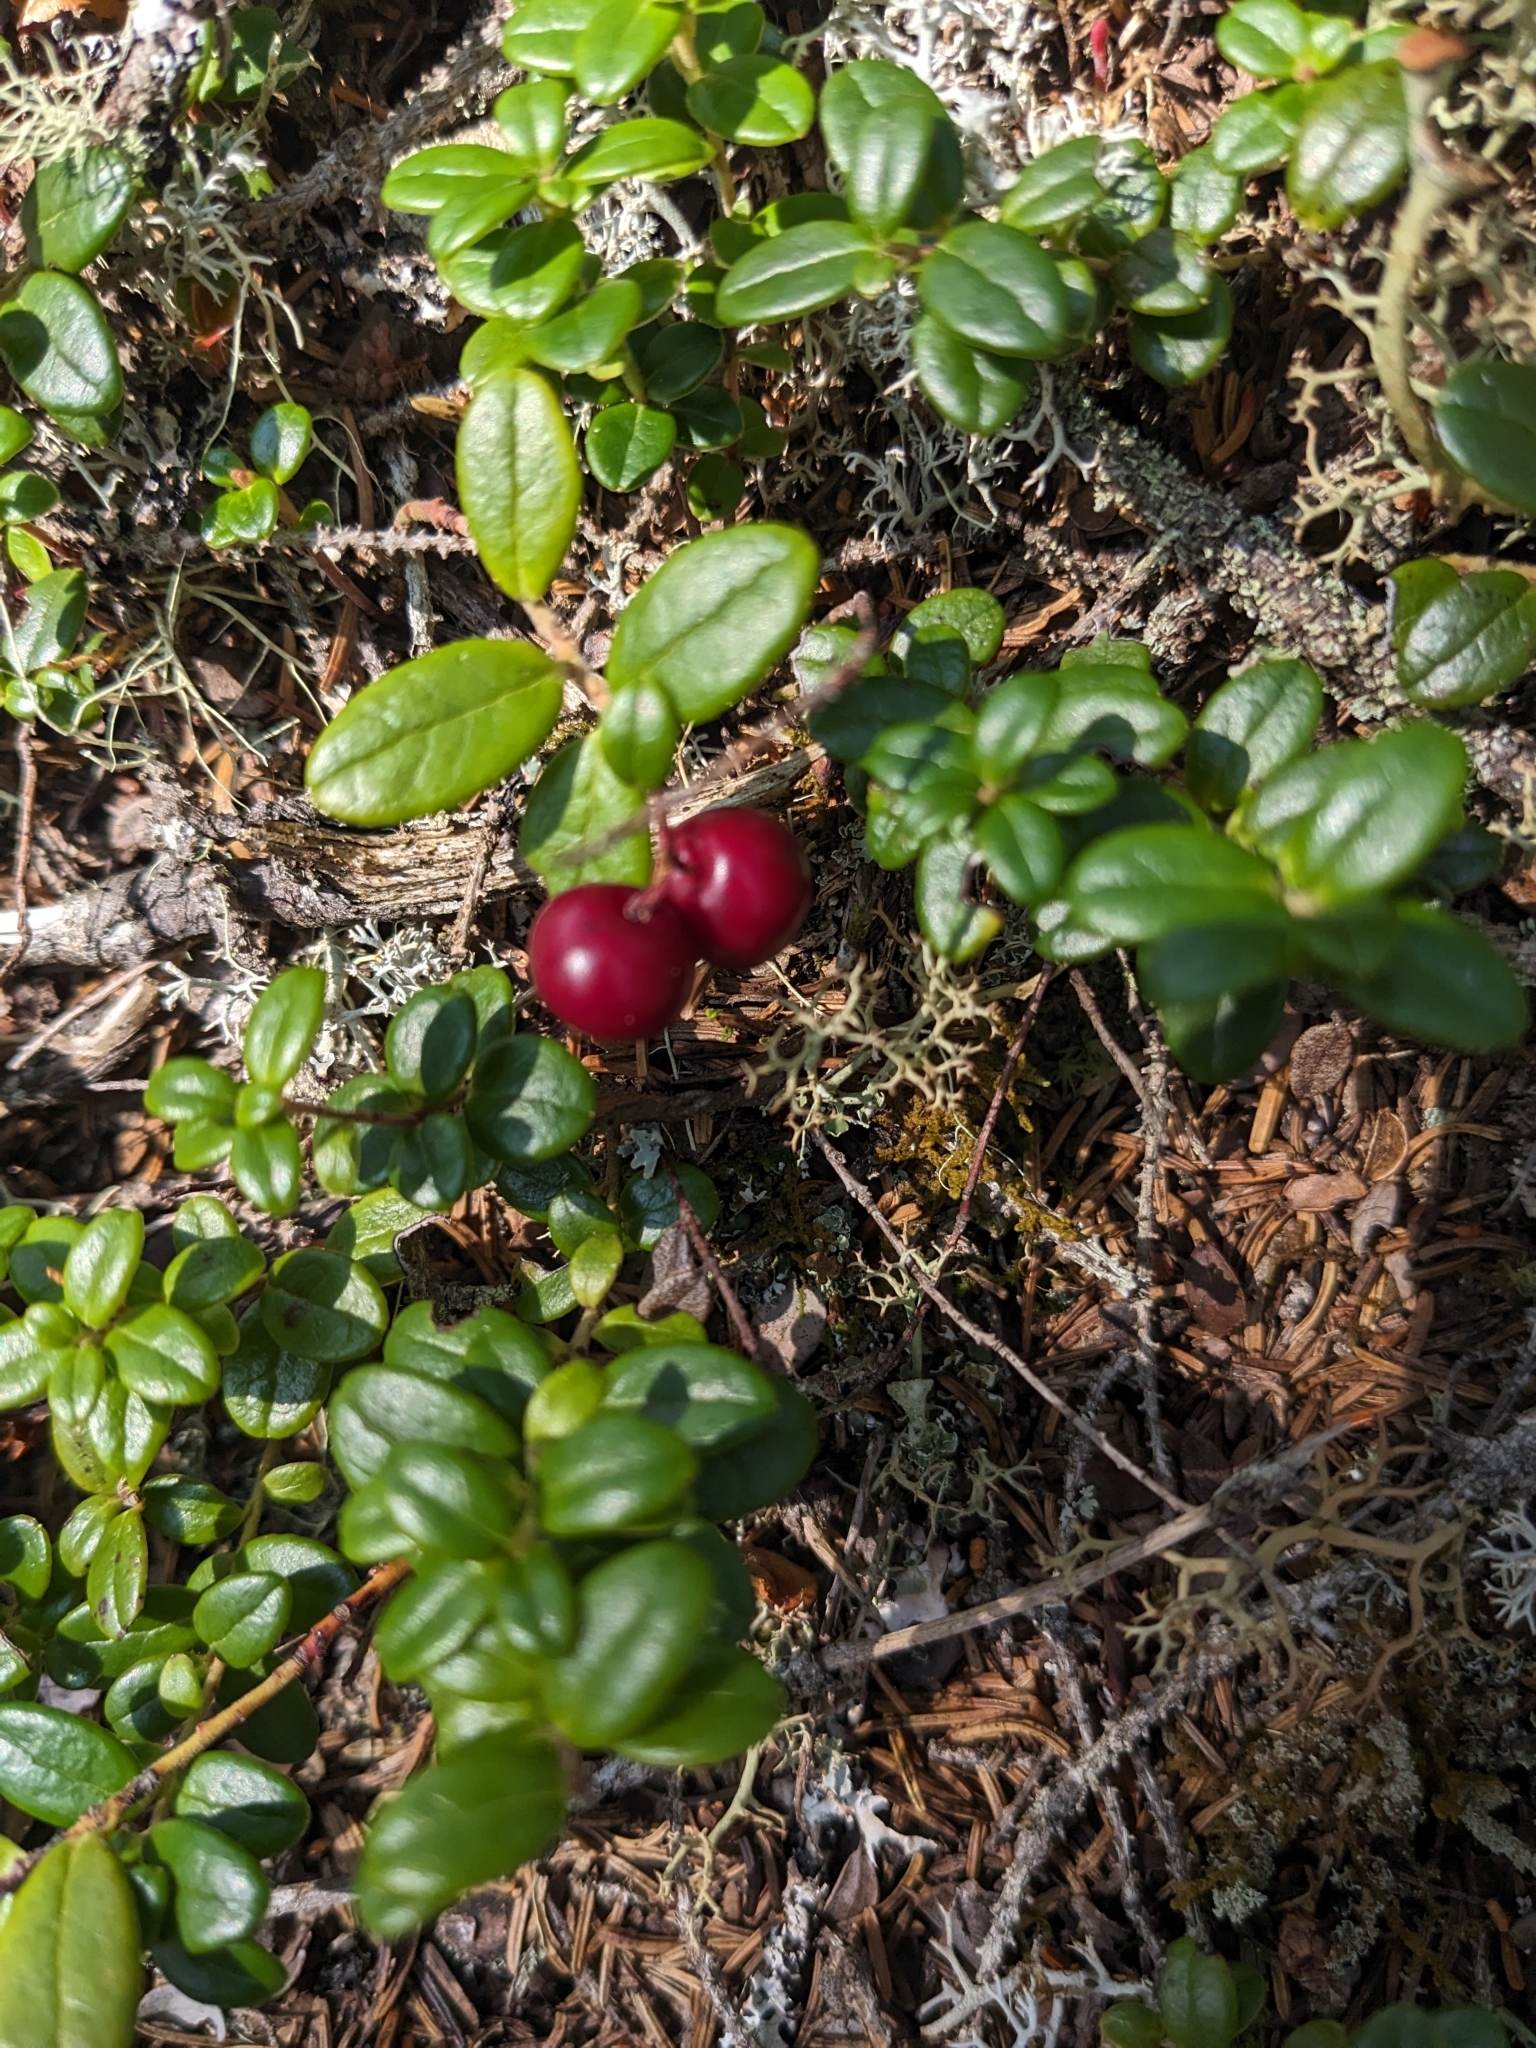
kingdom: Plantae
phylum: Tracheophyta
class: Magnoliopsida
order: Ericales
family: Ericaceae
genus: Vaccinium
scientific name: Vaccinium vitis-idaea
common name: Cowberry
